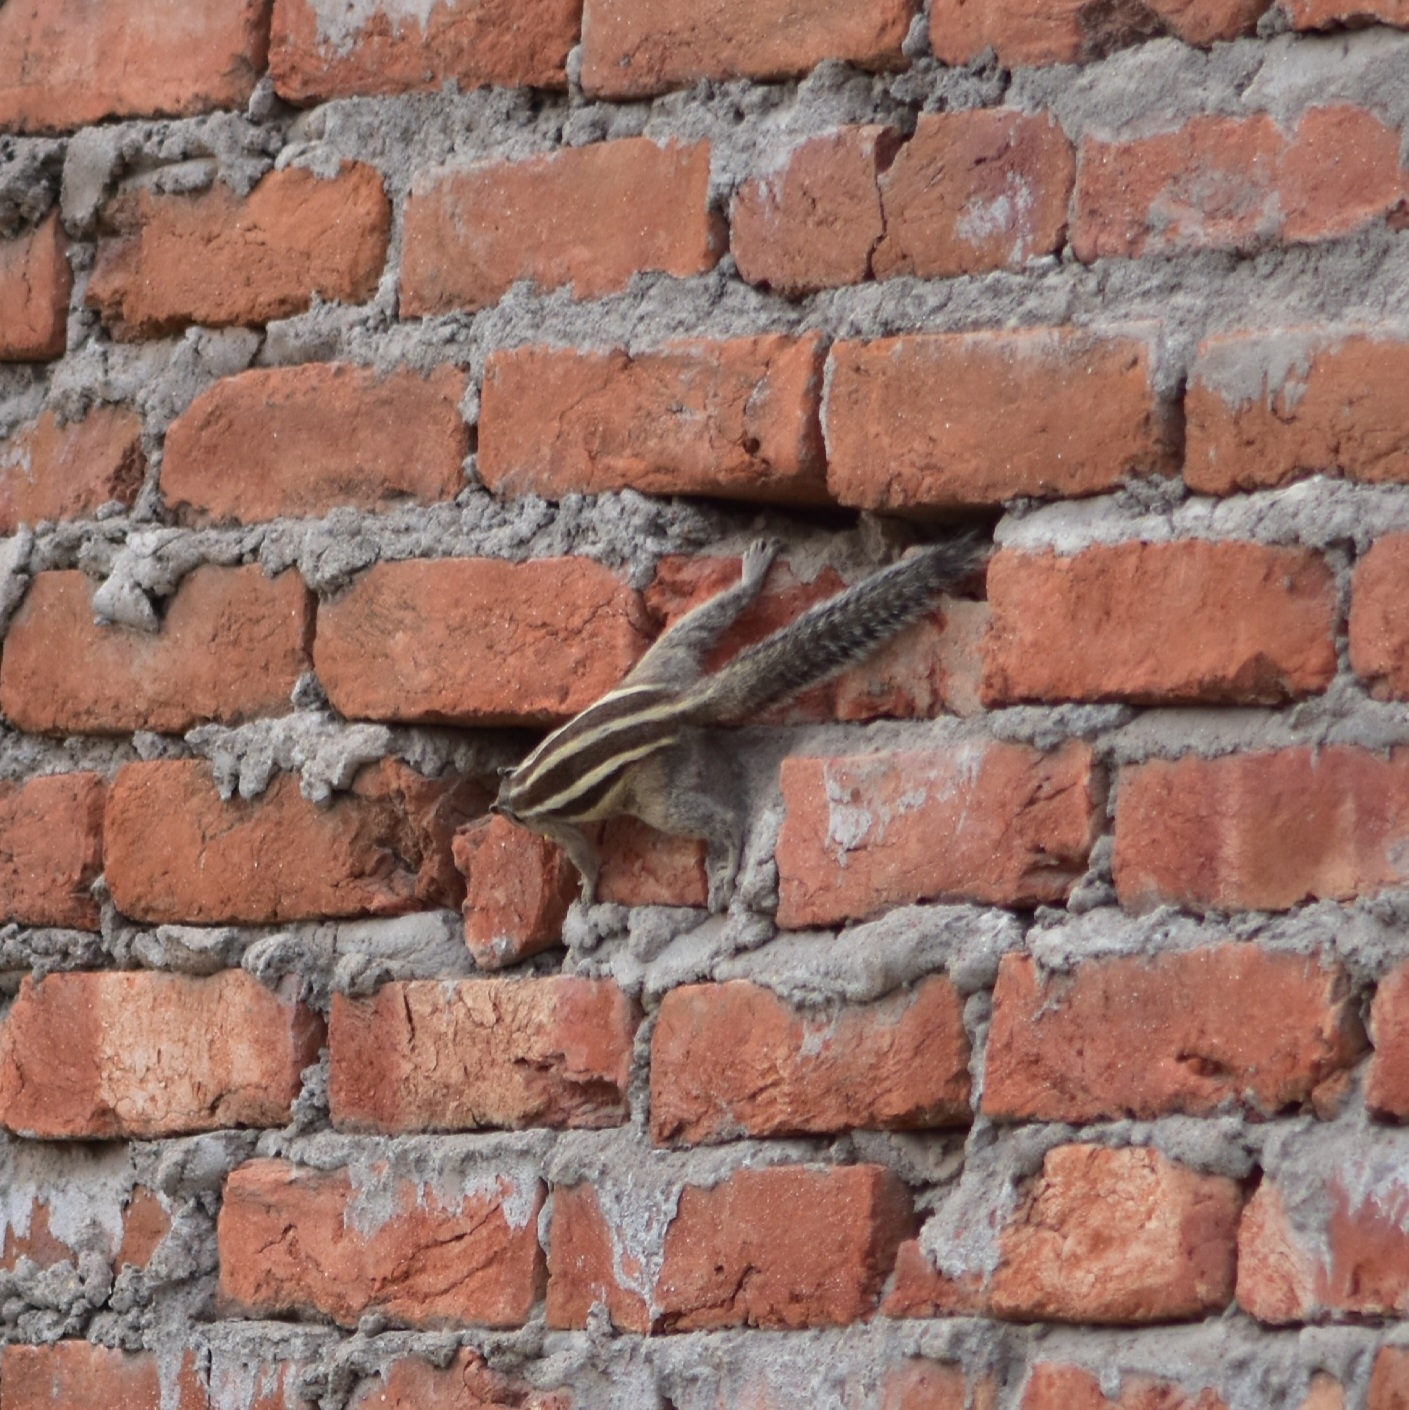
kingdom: Animalia
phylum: Chordata
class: Mammalia
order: Rodentia
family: Sciuridae
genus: Funambulus
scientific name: Funambulus pennantii
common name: Northern palm squirrel
